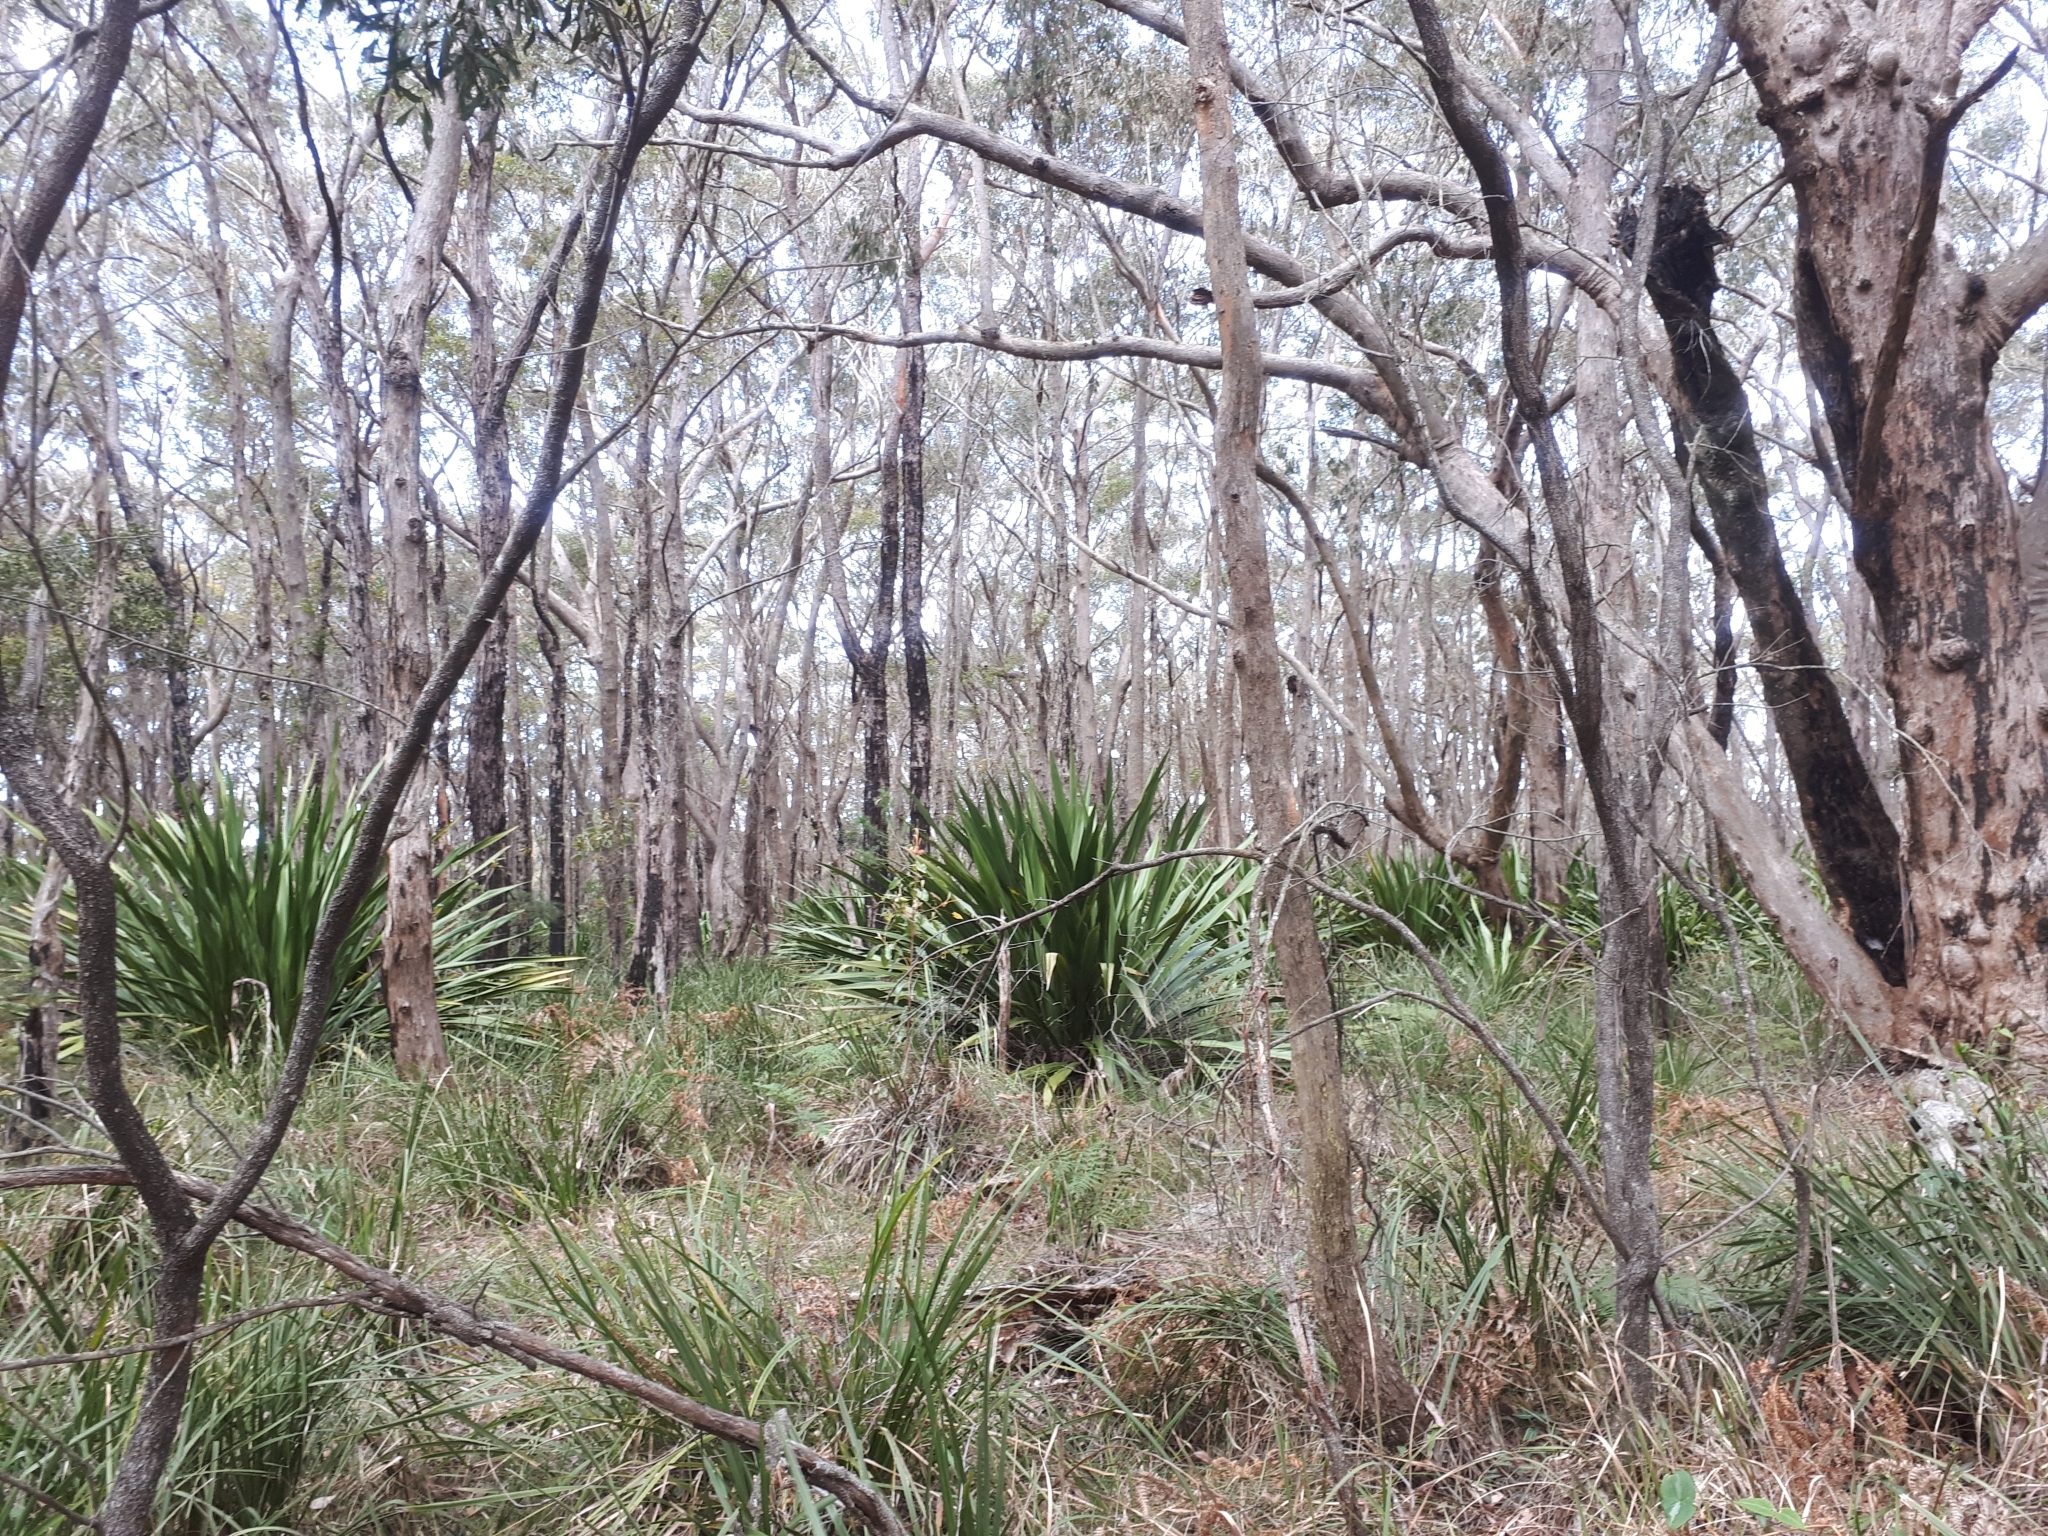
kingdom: Plantae
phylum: Tracheophyta
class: Liliopsida
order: Asparagales
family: Doryanthaceae
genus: Doryanthes
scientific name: Doryanthes excelsa
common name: Giant-lily
